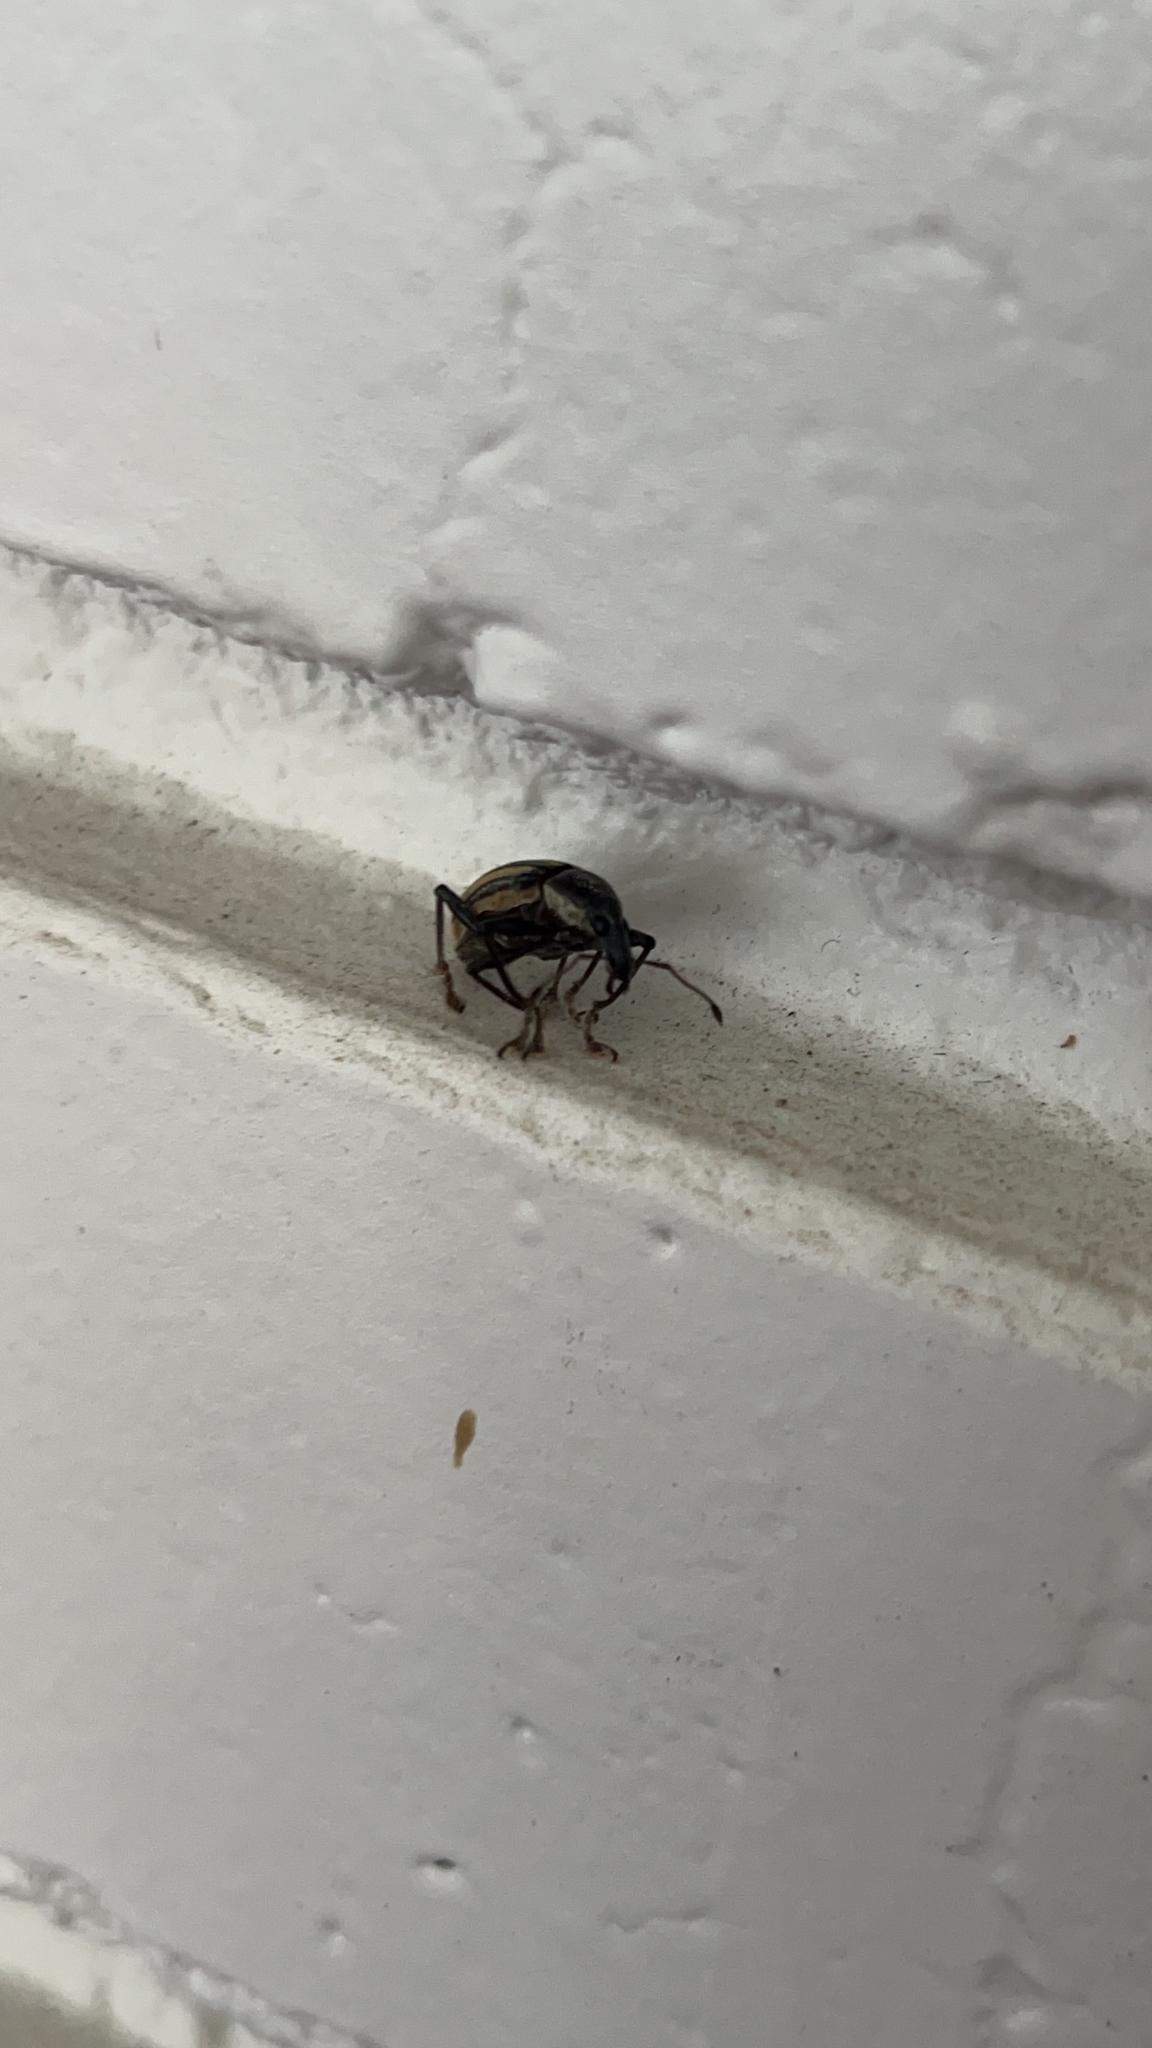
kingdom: Animalia
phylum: Arthropoda
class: Insecta
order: Coleoptera
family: Curculionidae
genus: Diaprepes
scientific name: Diaprepes abbreviatus
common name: Root weevil
